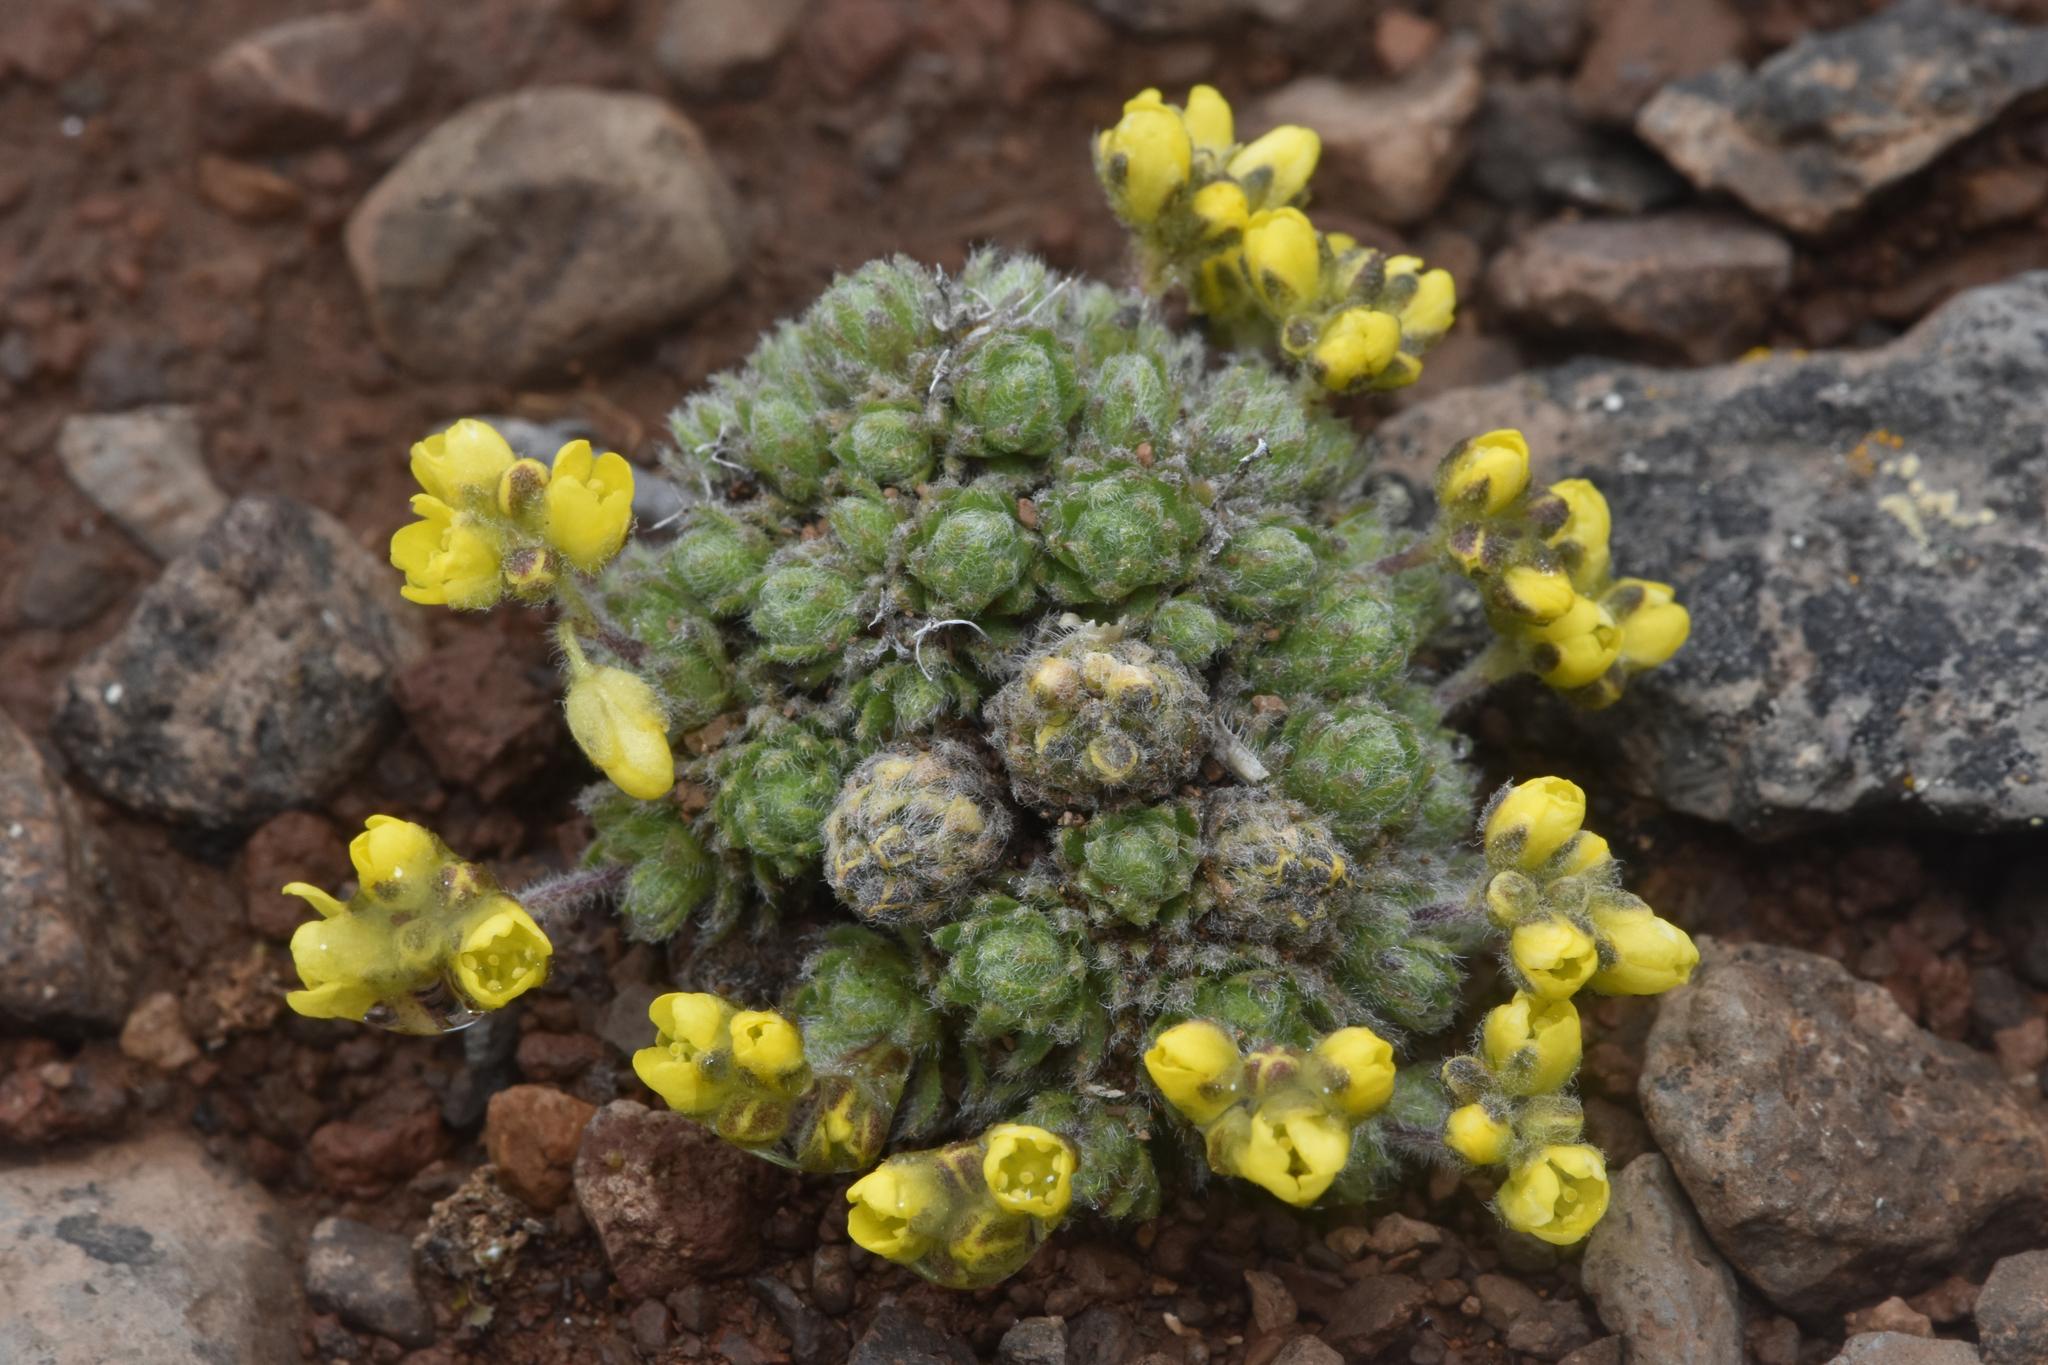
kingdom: Plantae
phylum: Tracheophyta
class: Magnoliopsida
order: Brassicales
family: Brassicaceae
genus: Draba
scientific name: Draba oligosperma
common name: Few-seed draba
